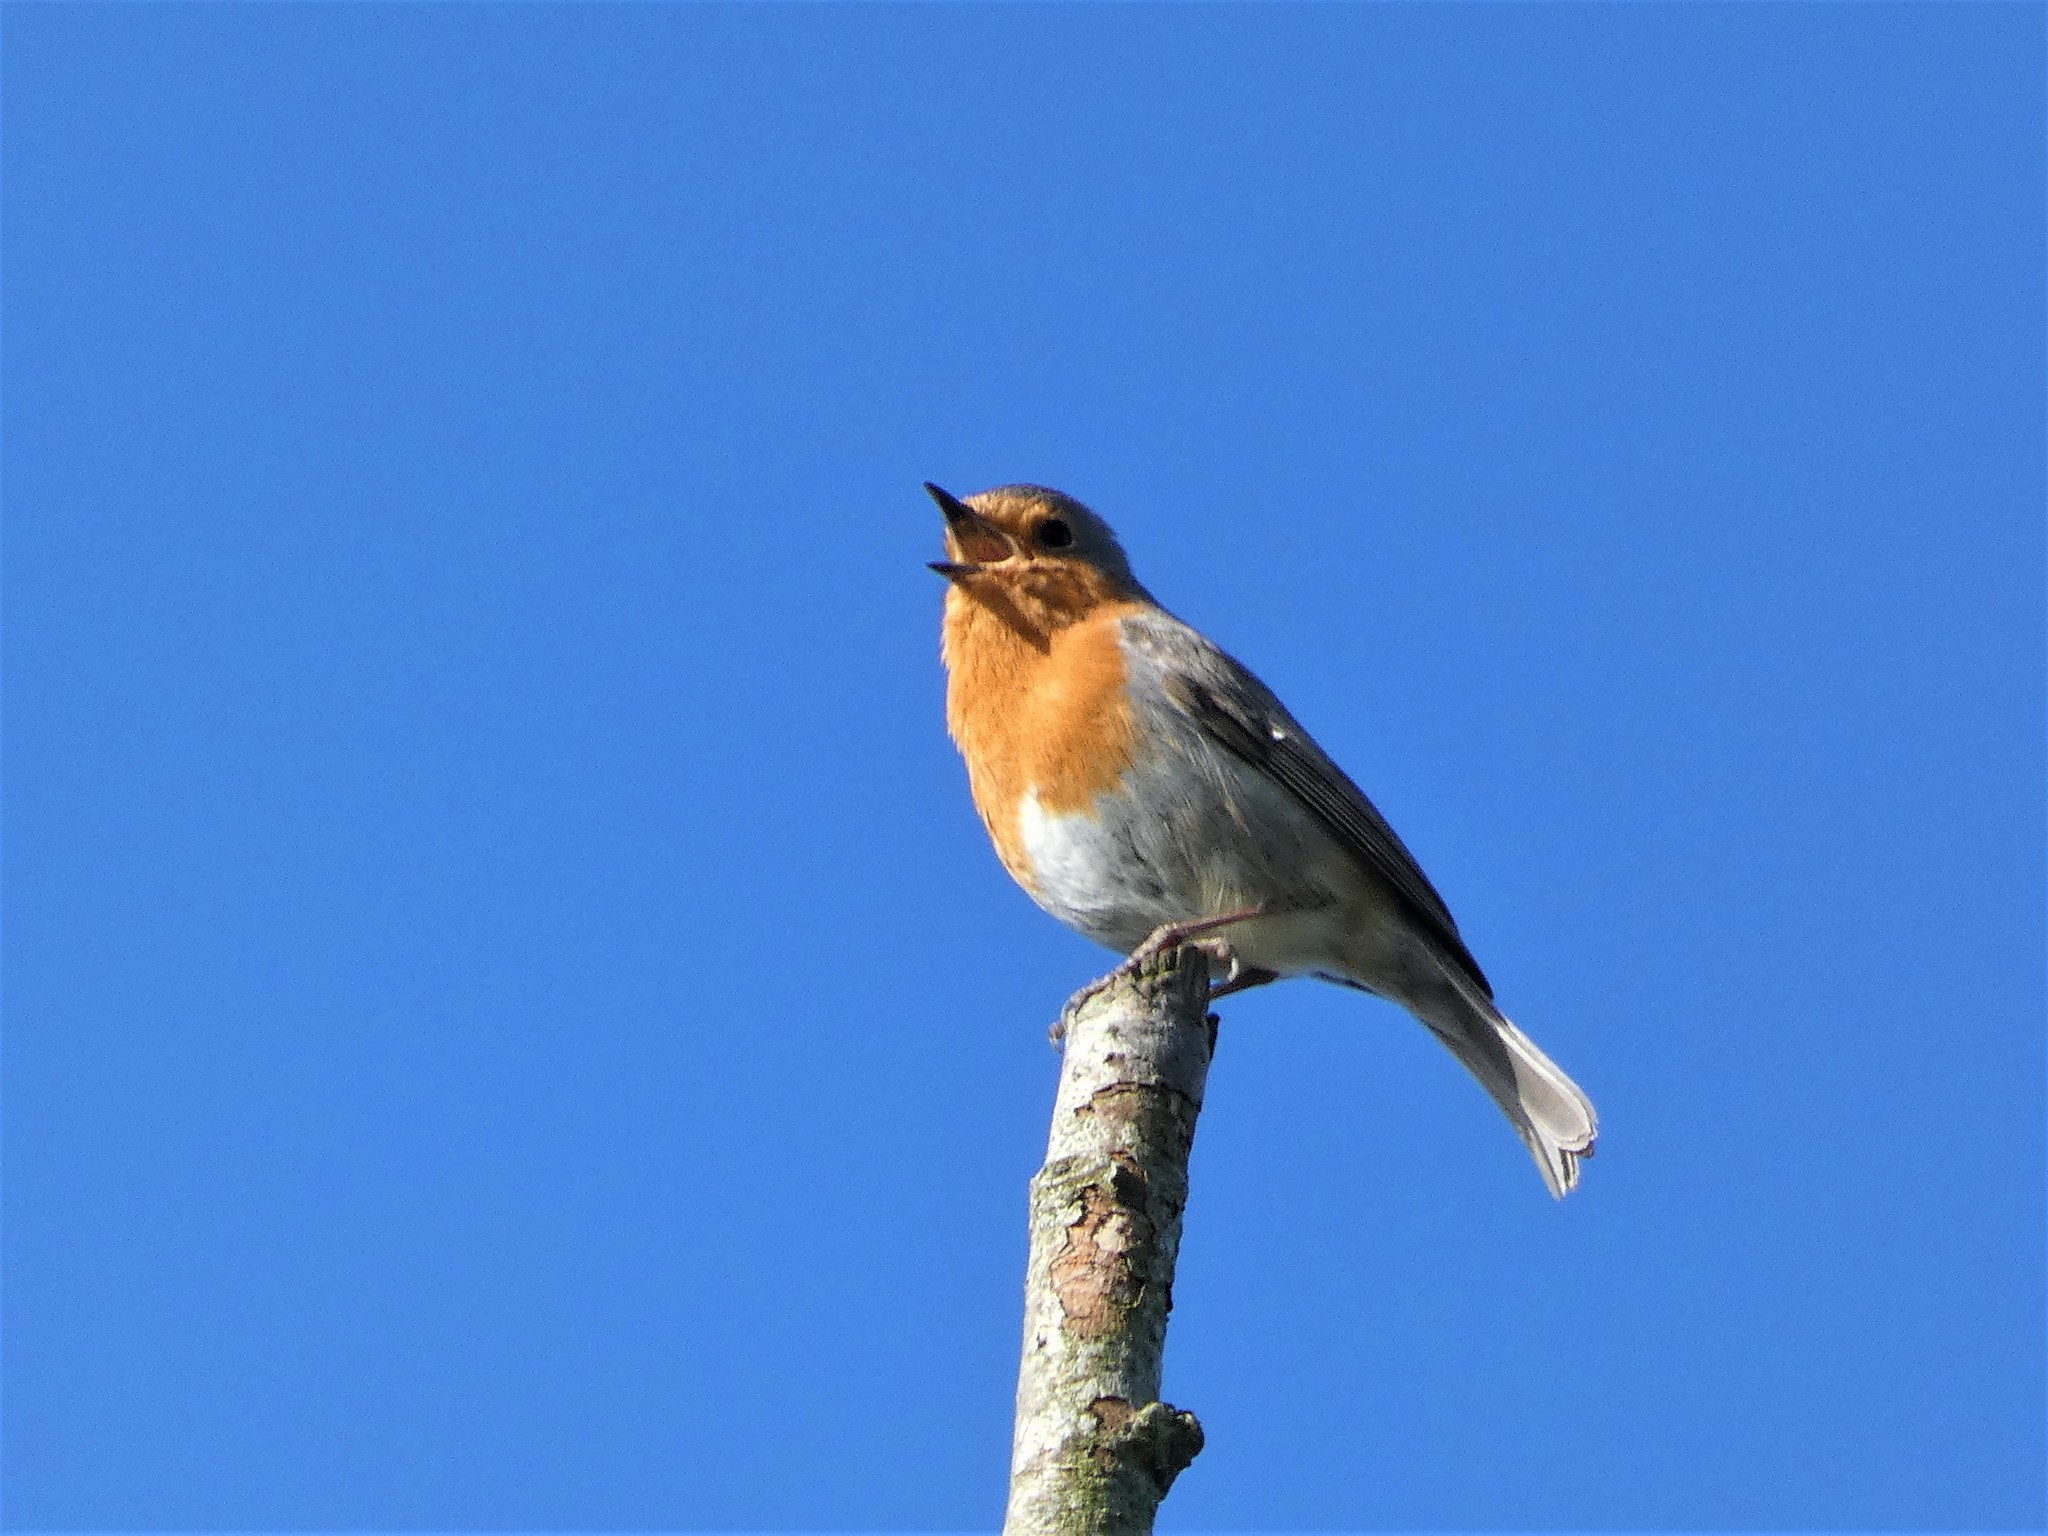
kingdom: Animalia
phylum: Chordata
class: Aves
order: Passeriformes
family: Muscicapidae
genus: Erithacus
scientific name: Erithacus rubecula
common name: European robin
